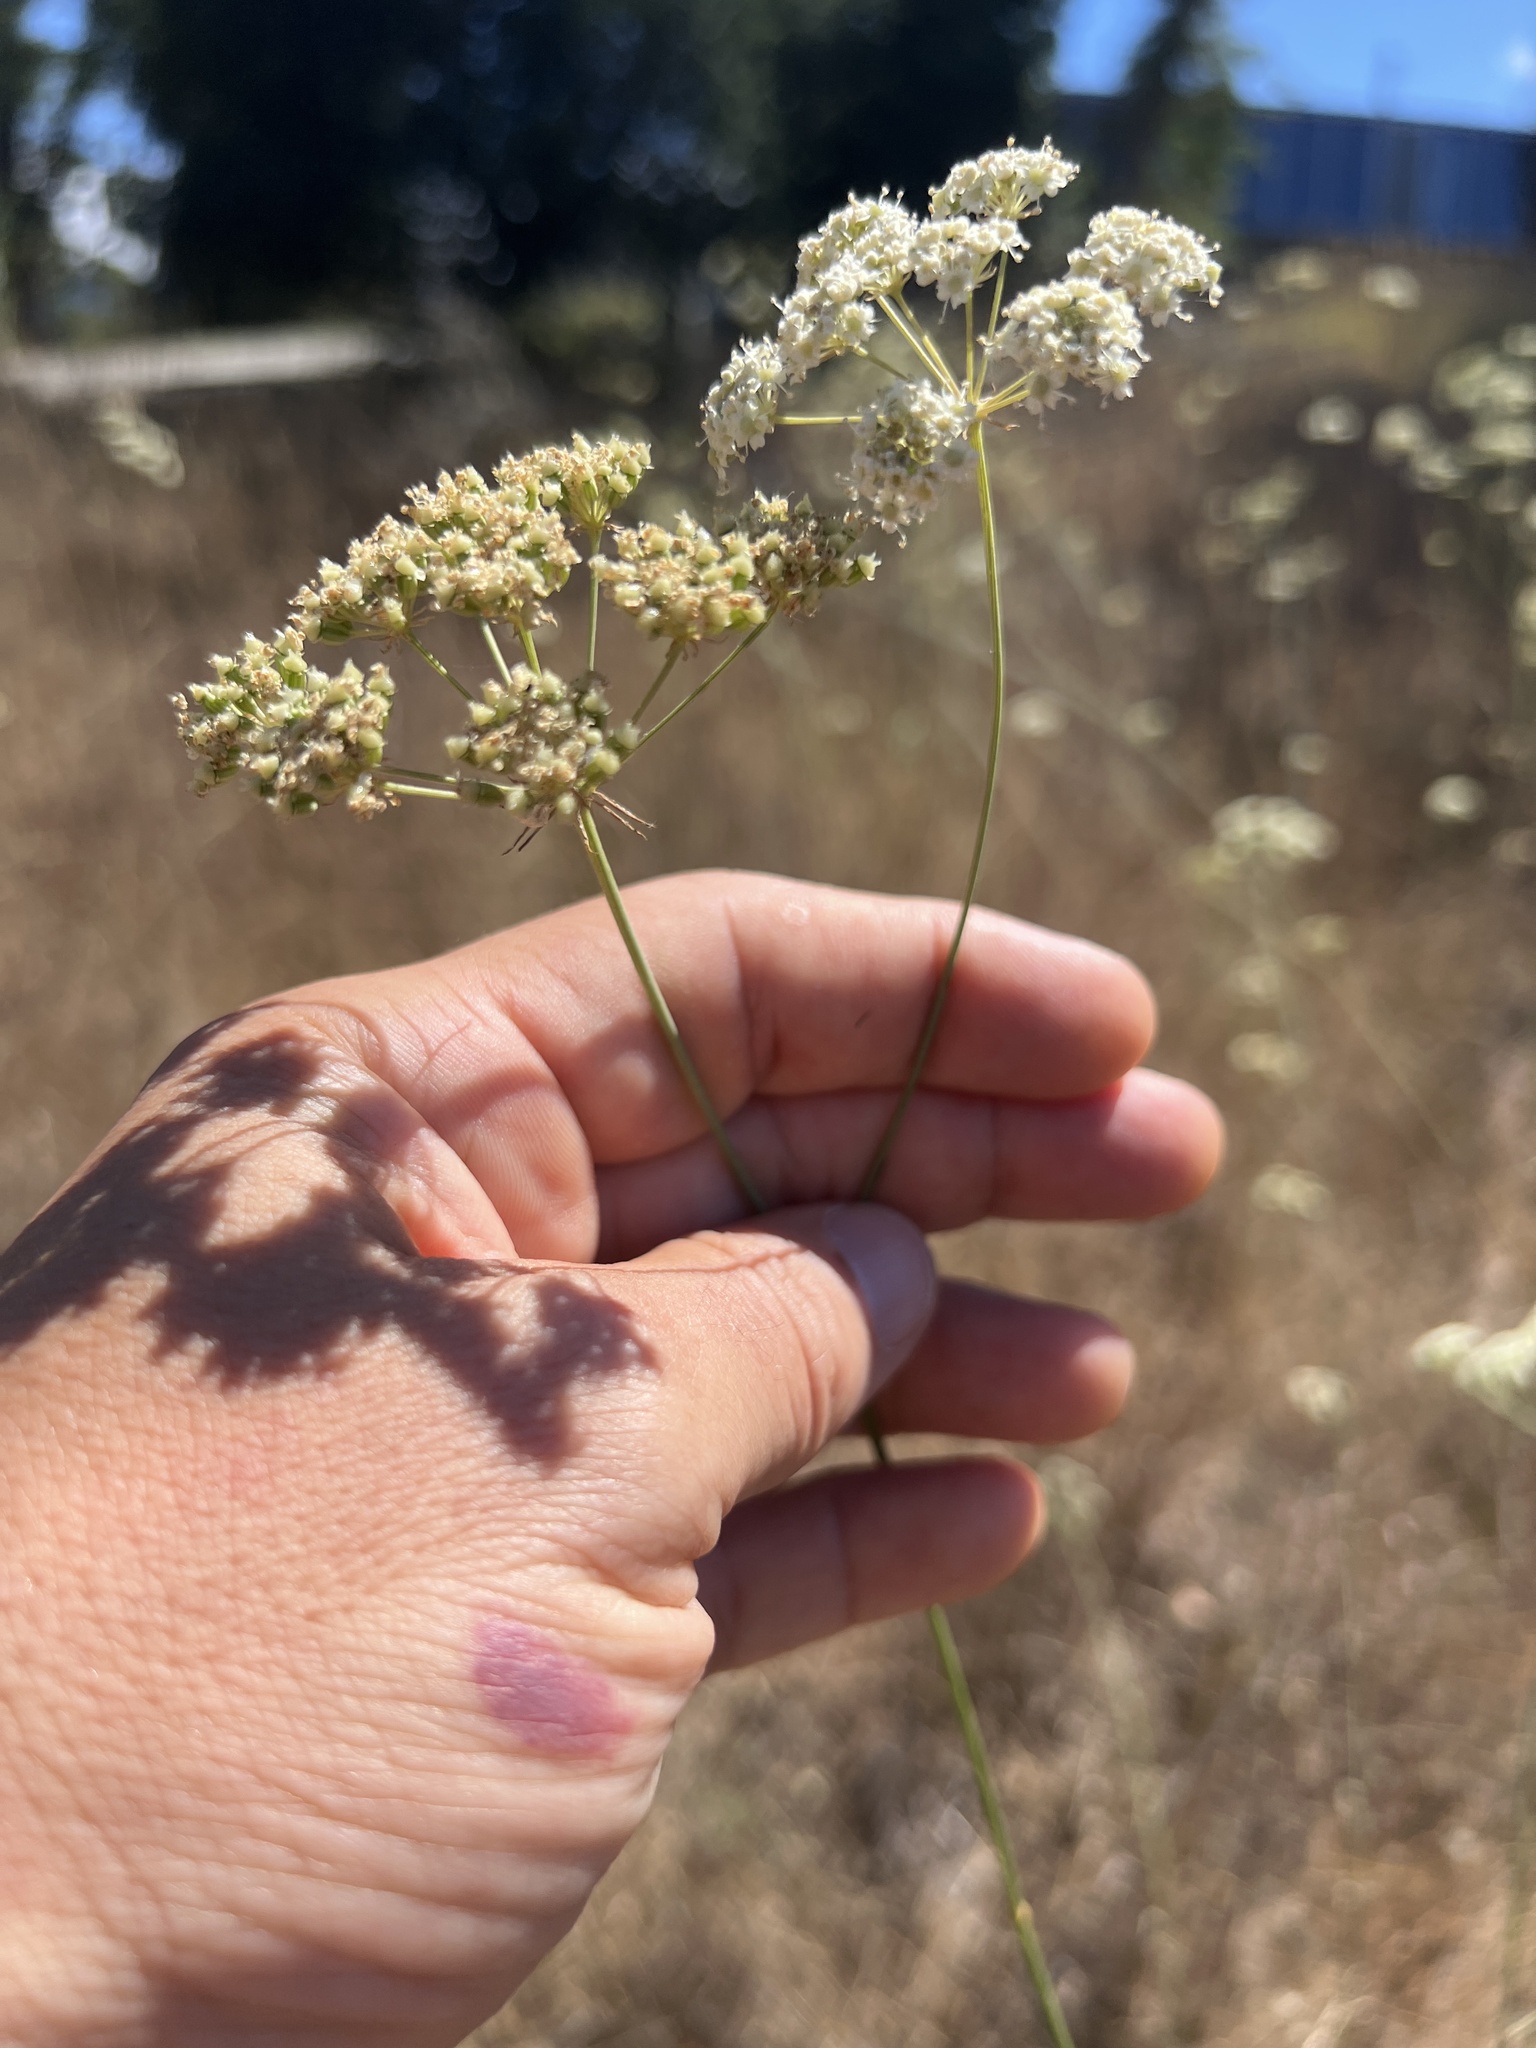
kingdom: Plantae
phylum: Tracheophyta
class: Magnoliopsida
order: Apiales
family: Apiaceae
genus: Perideridia
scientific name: Perideridia kelloggii
